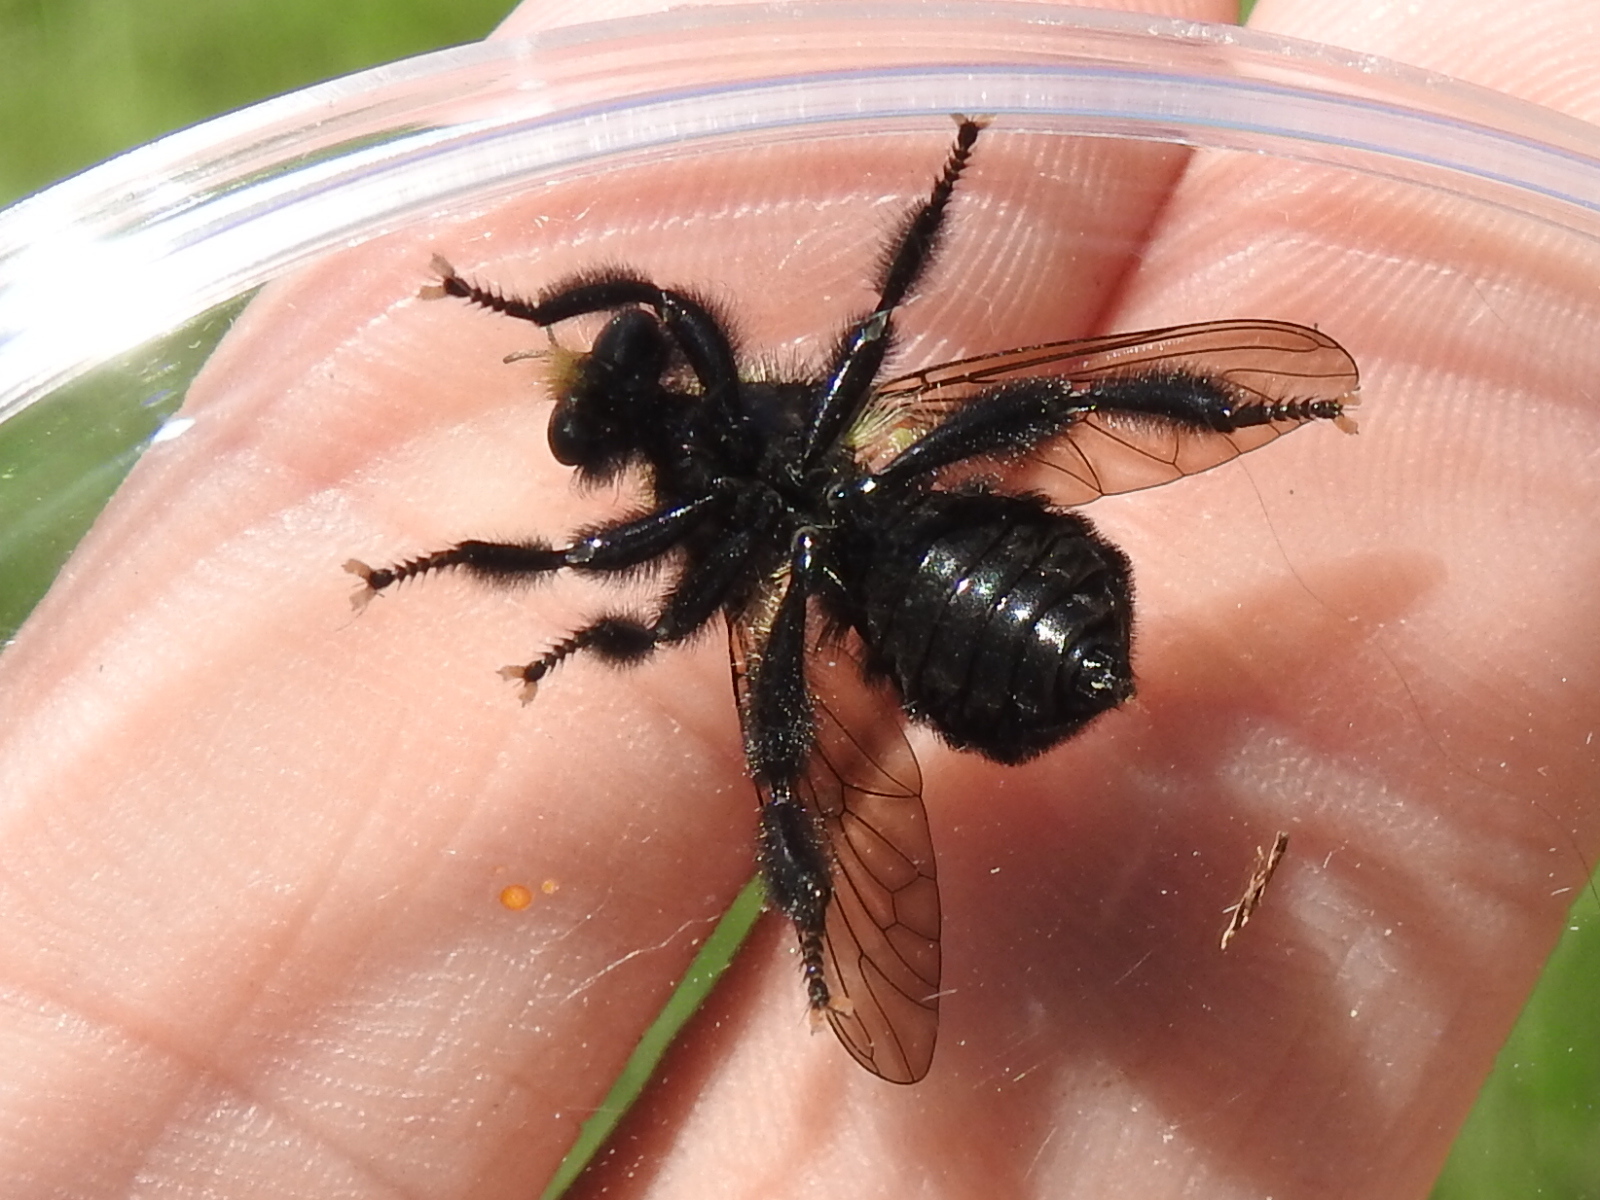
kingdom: Animalia
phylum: Arthropoda
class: Insecta
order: Diptera
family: Asilidae
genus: Laphria
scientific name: Laphria flavicollis
